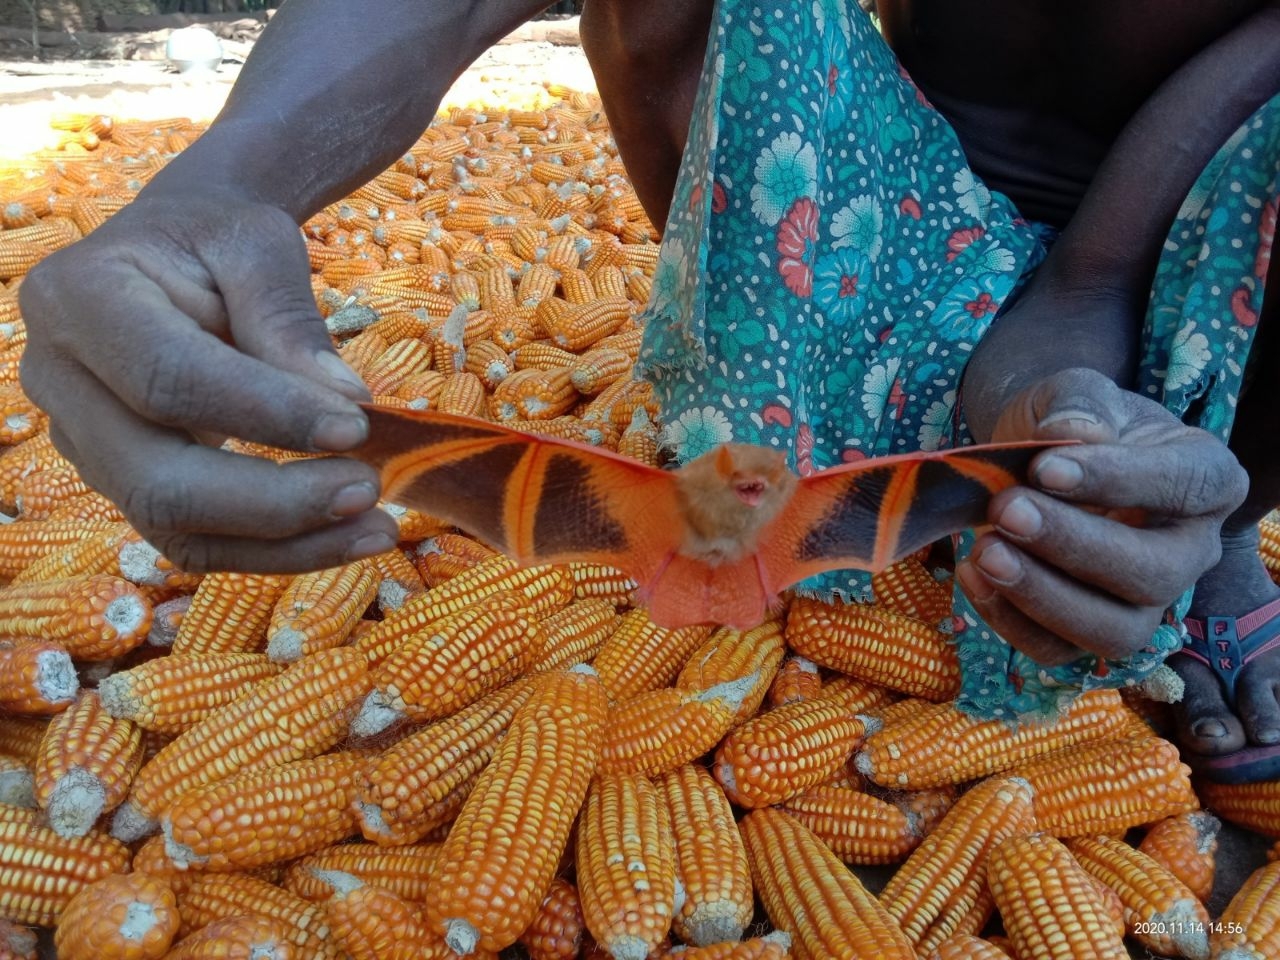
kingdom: Animalia
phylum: Chordata
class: Mammalia
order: Chiroptera
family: Vespertilionidae
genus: Kerivoula
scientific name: Kerivoula picta
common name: Painted woolly bat
